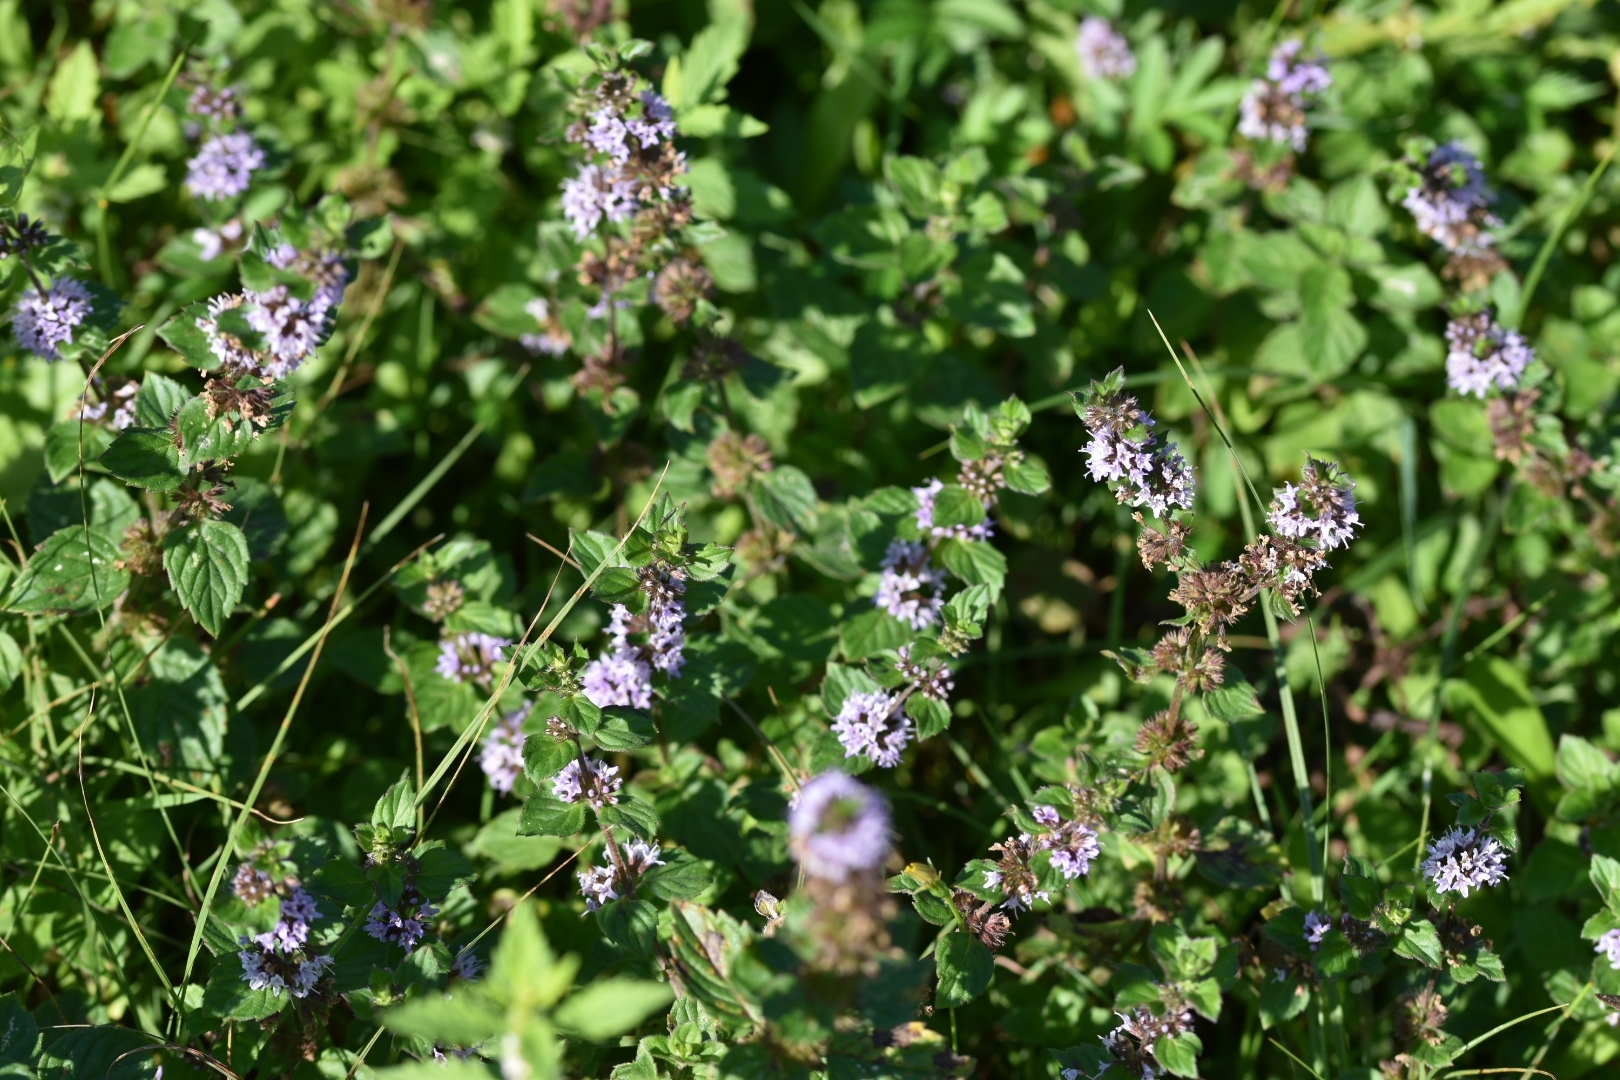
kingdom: Plantae
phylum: Tracheophyta
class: Magnoliopsida
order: Lamiales
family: Lamiaceae
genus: Mentha
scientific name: Mentha verticillata
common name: Mint
